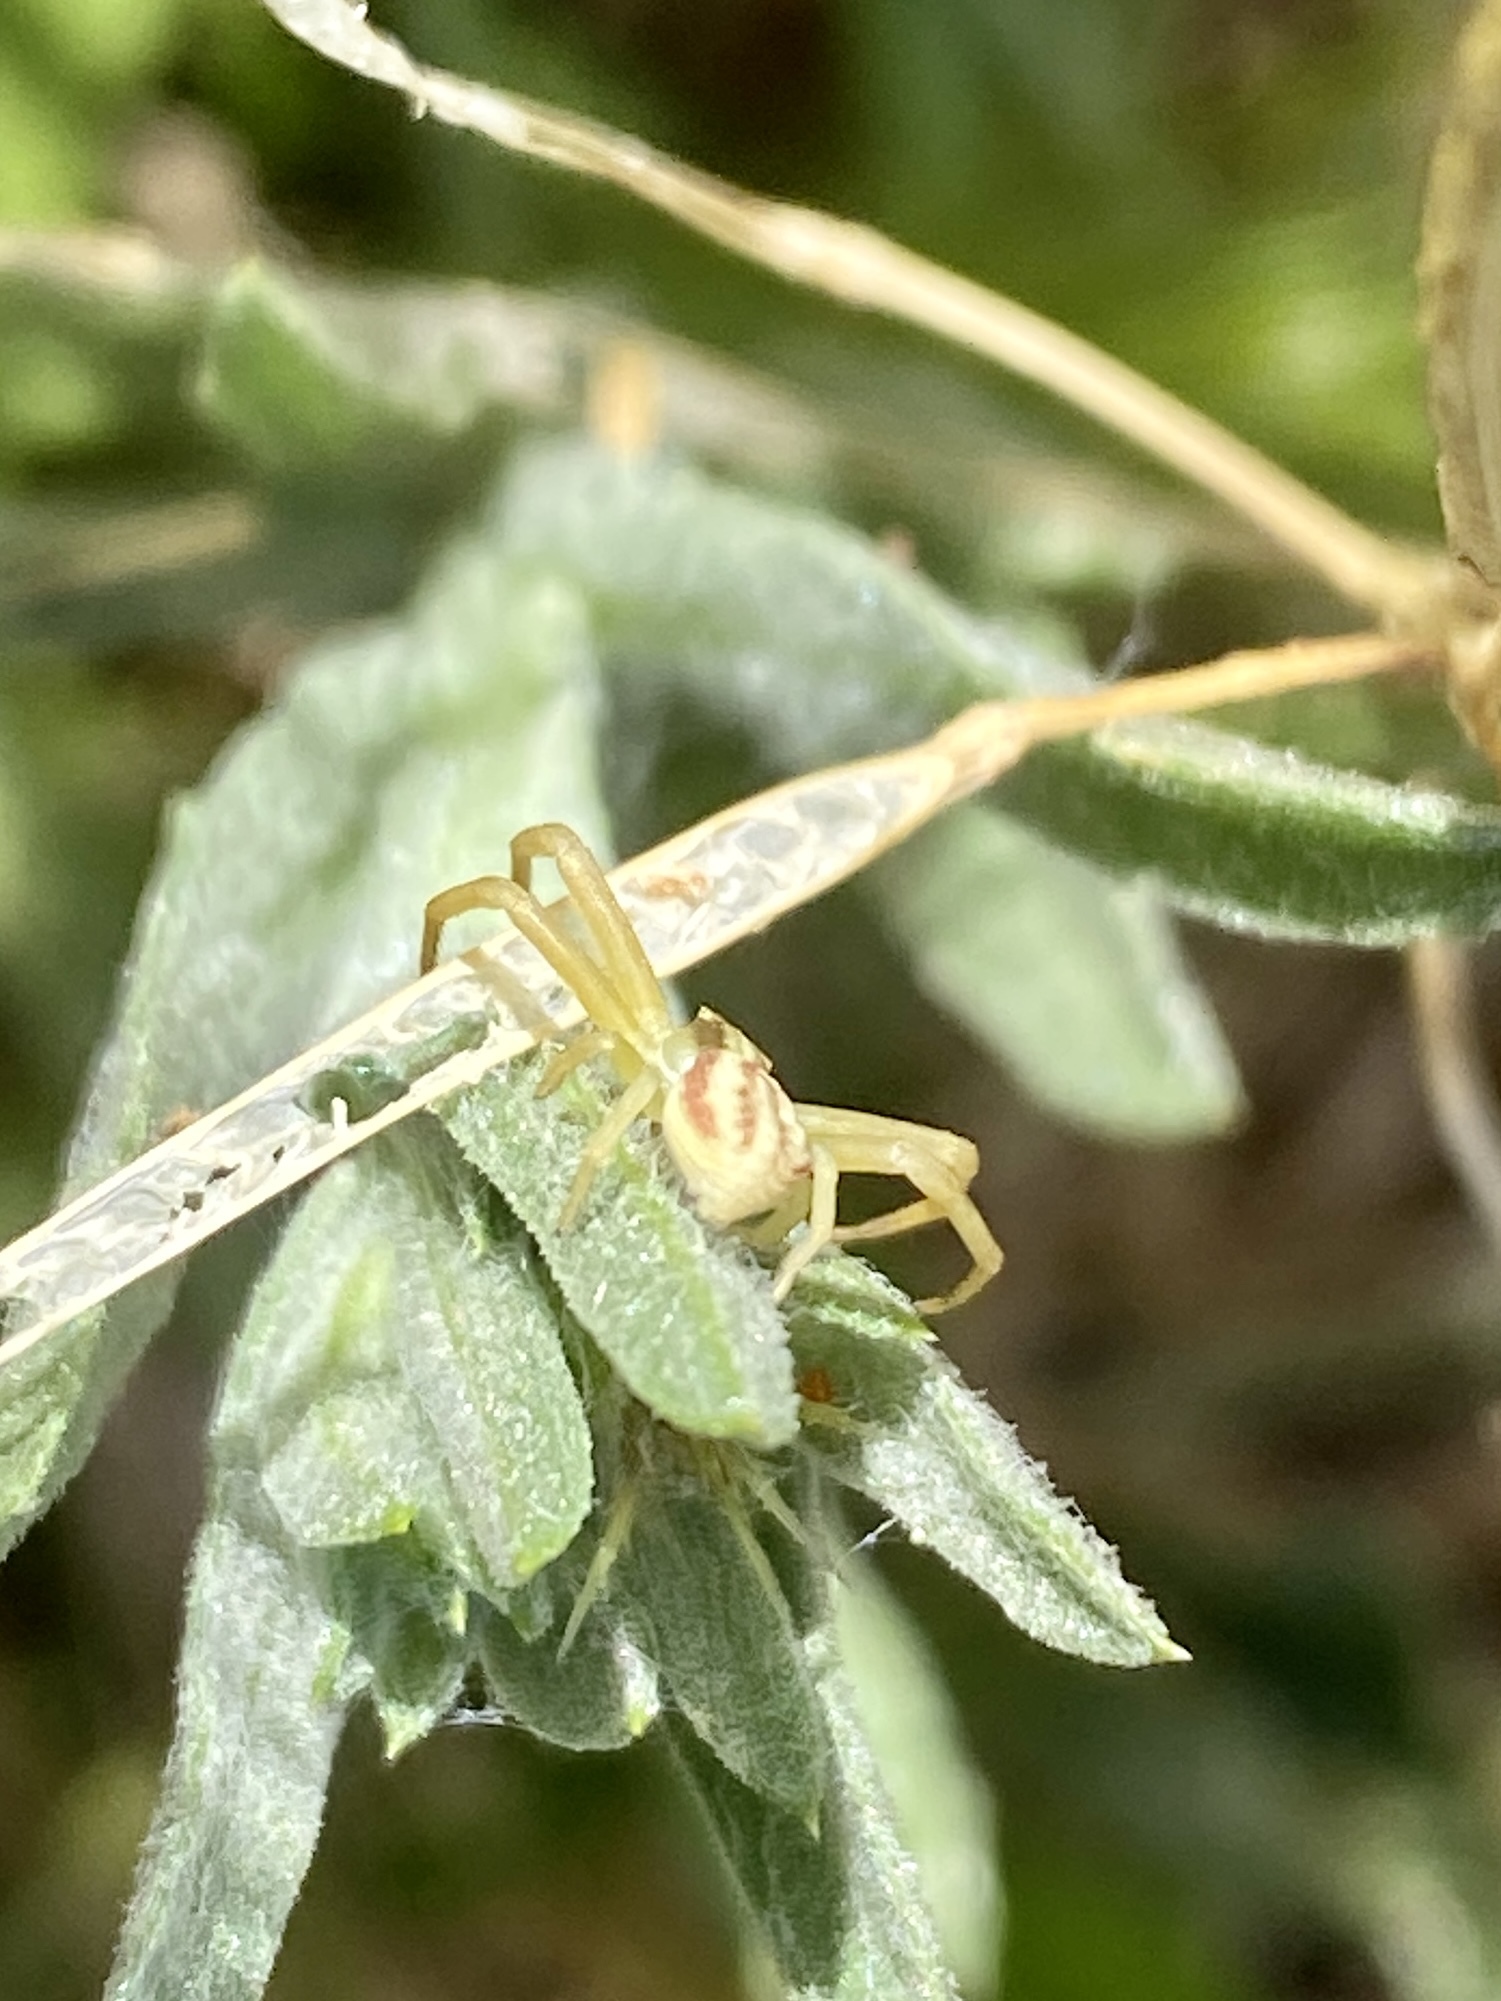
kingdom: Animalia
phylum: Arthropoda
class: Arachnida
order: Araneae
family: Thomisidae
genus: Runcinia
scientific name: Runcinia grammica
